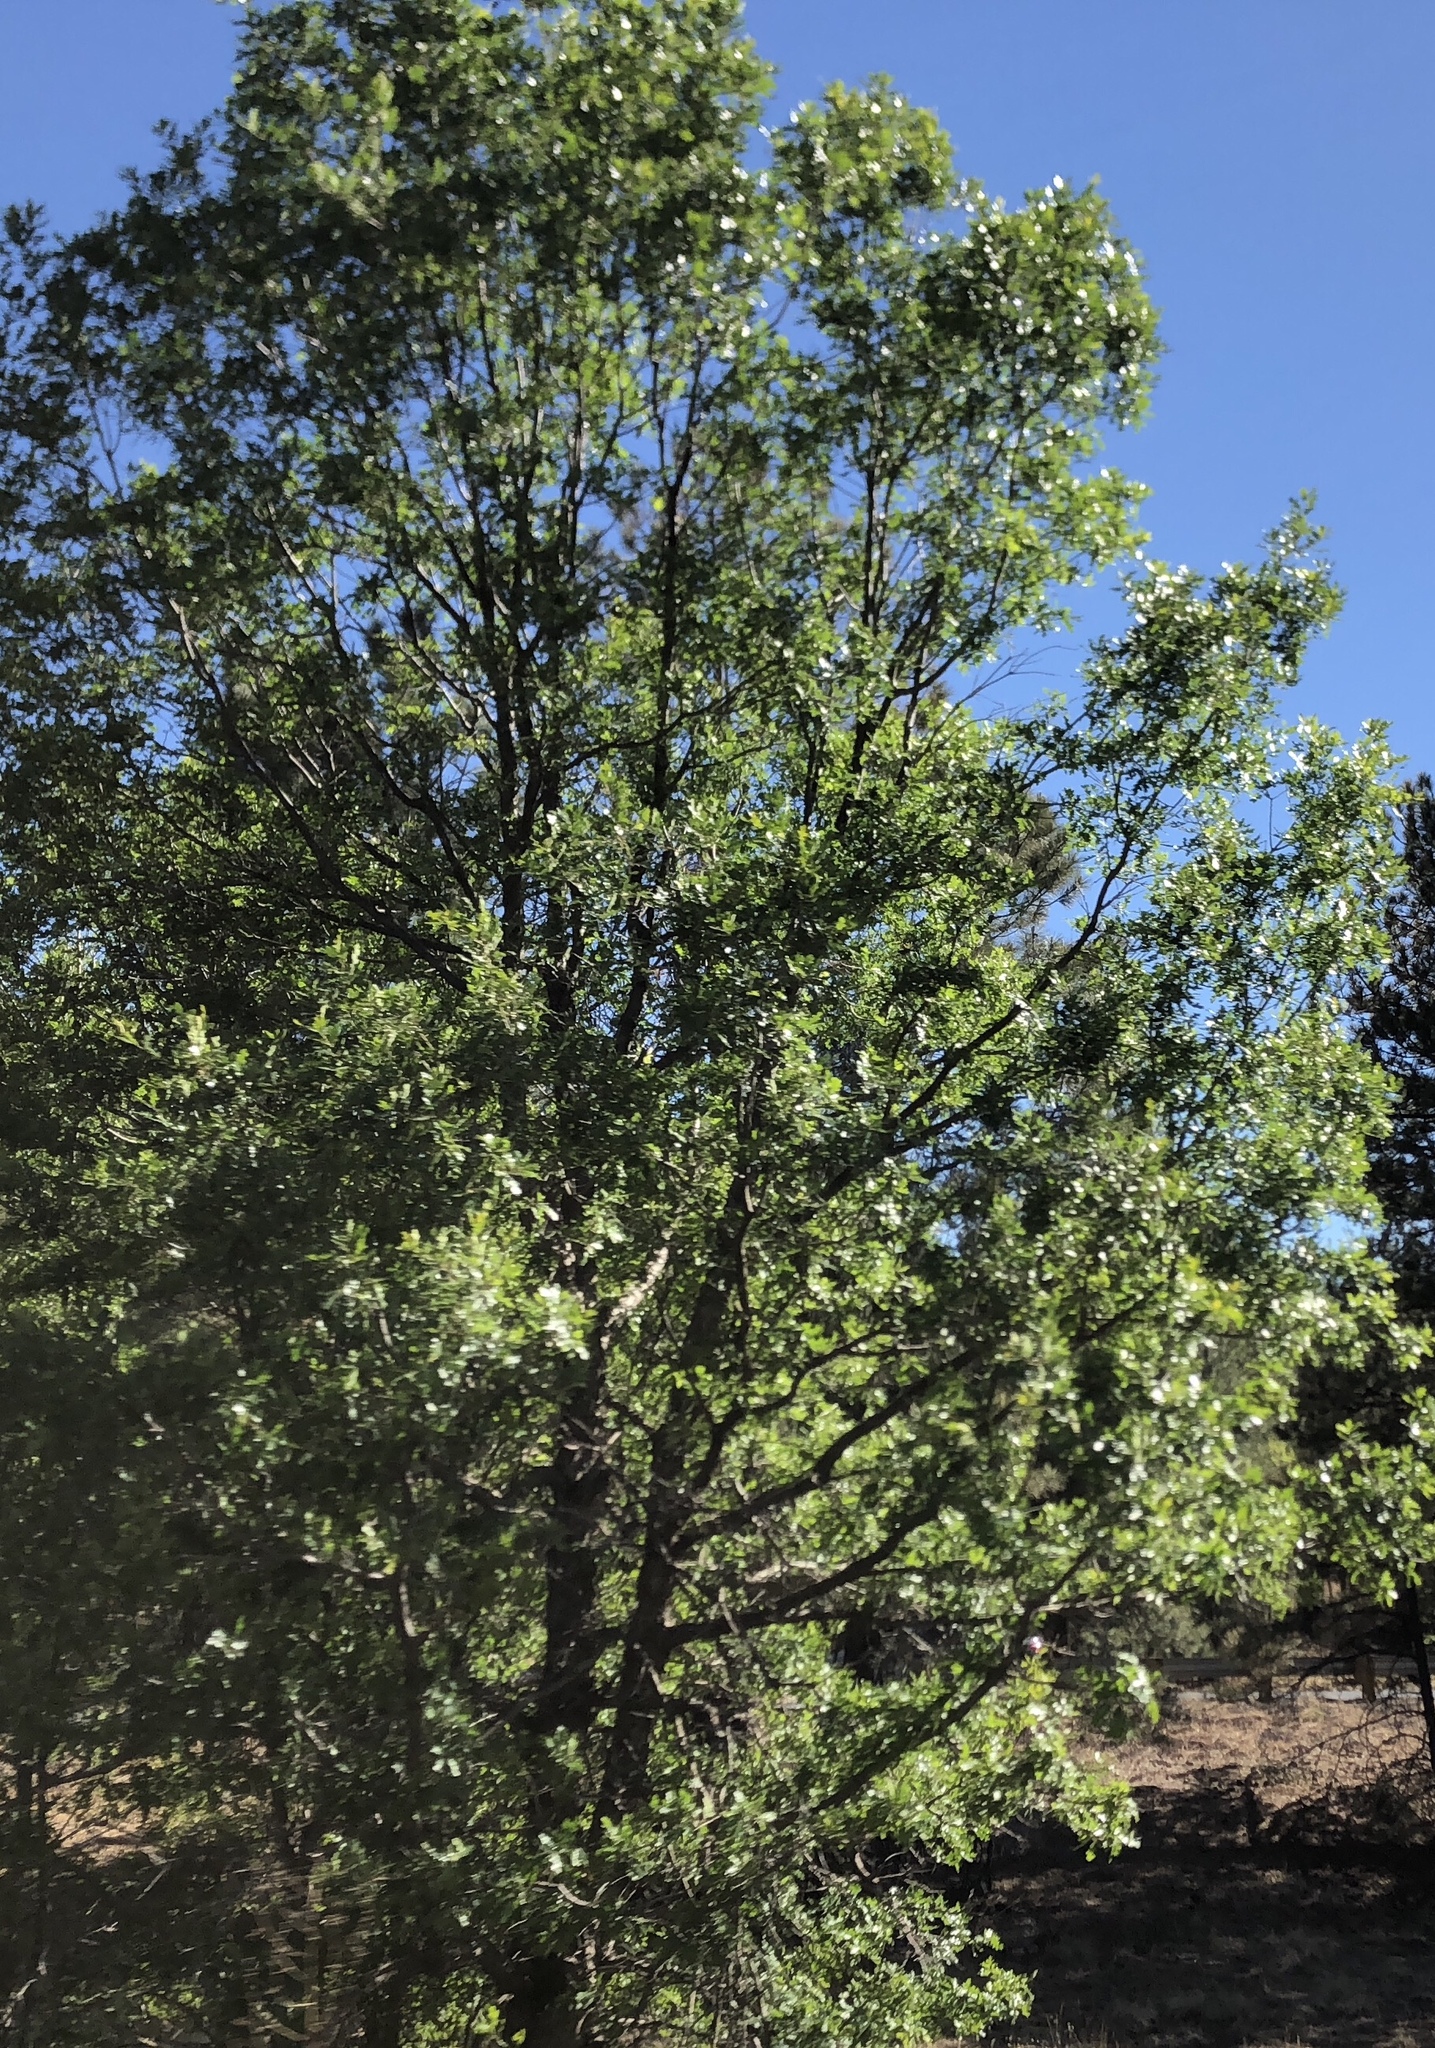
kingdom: Plantae
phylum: Tracheophyta
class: Magnoliopsida
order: Fagales
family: Fagaceae
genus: Quercus
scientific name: Quercus gambelii
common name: Gambel oak
